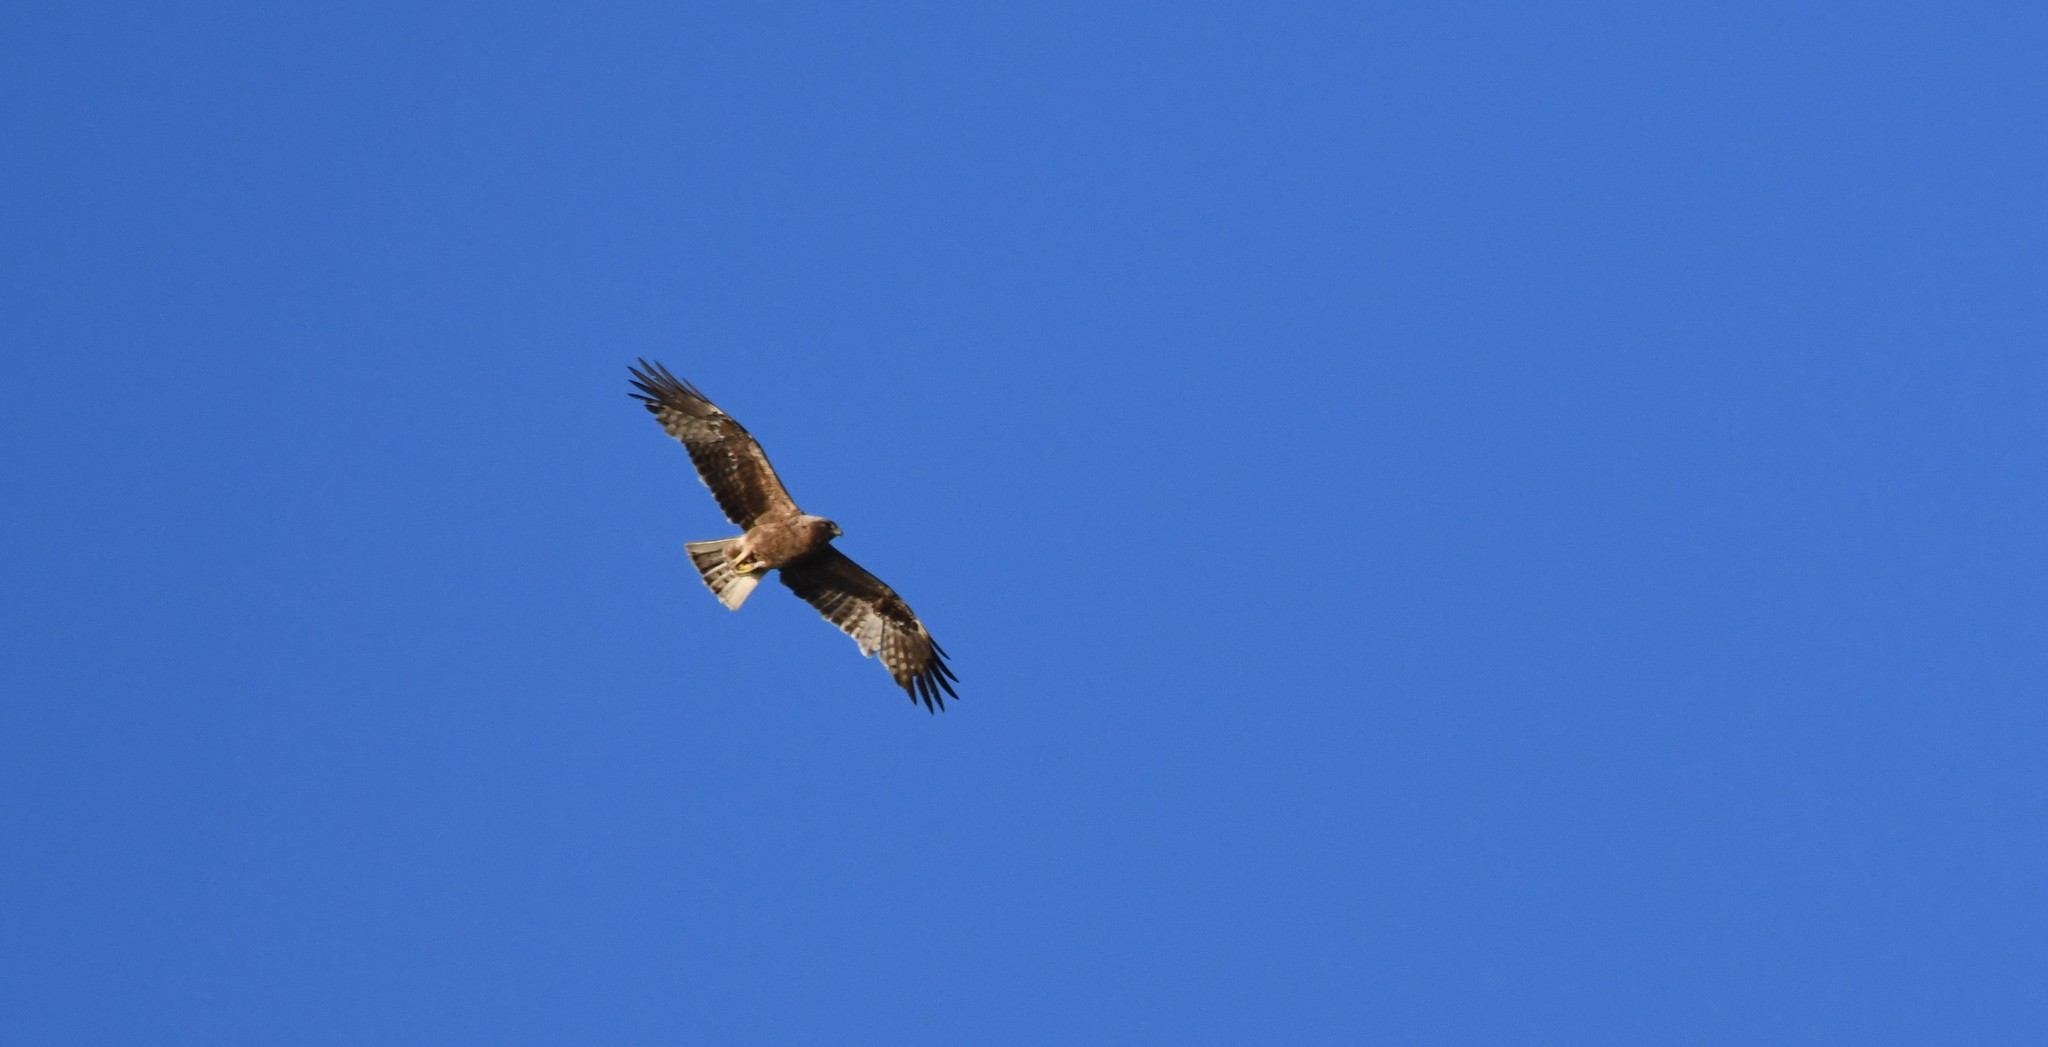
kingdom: Animalia
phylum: Chordata
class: Aves
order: Accipitriformes
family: Accipitridae
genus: Hieraaetus
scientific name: Hieraaetus pennatus
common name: Booted eagle
